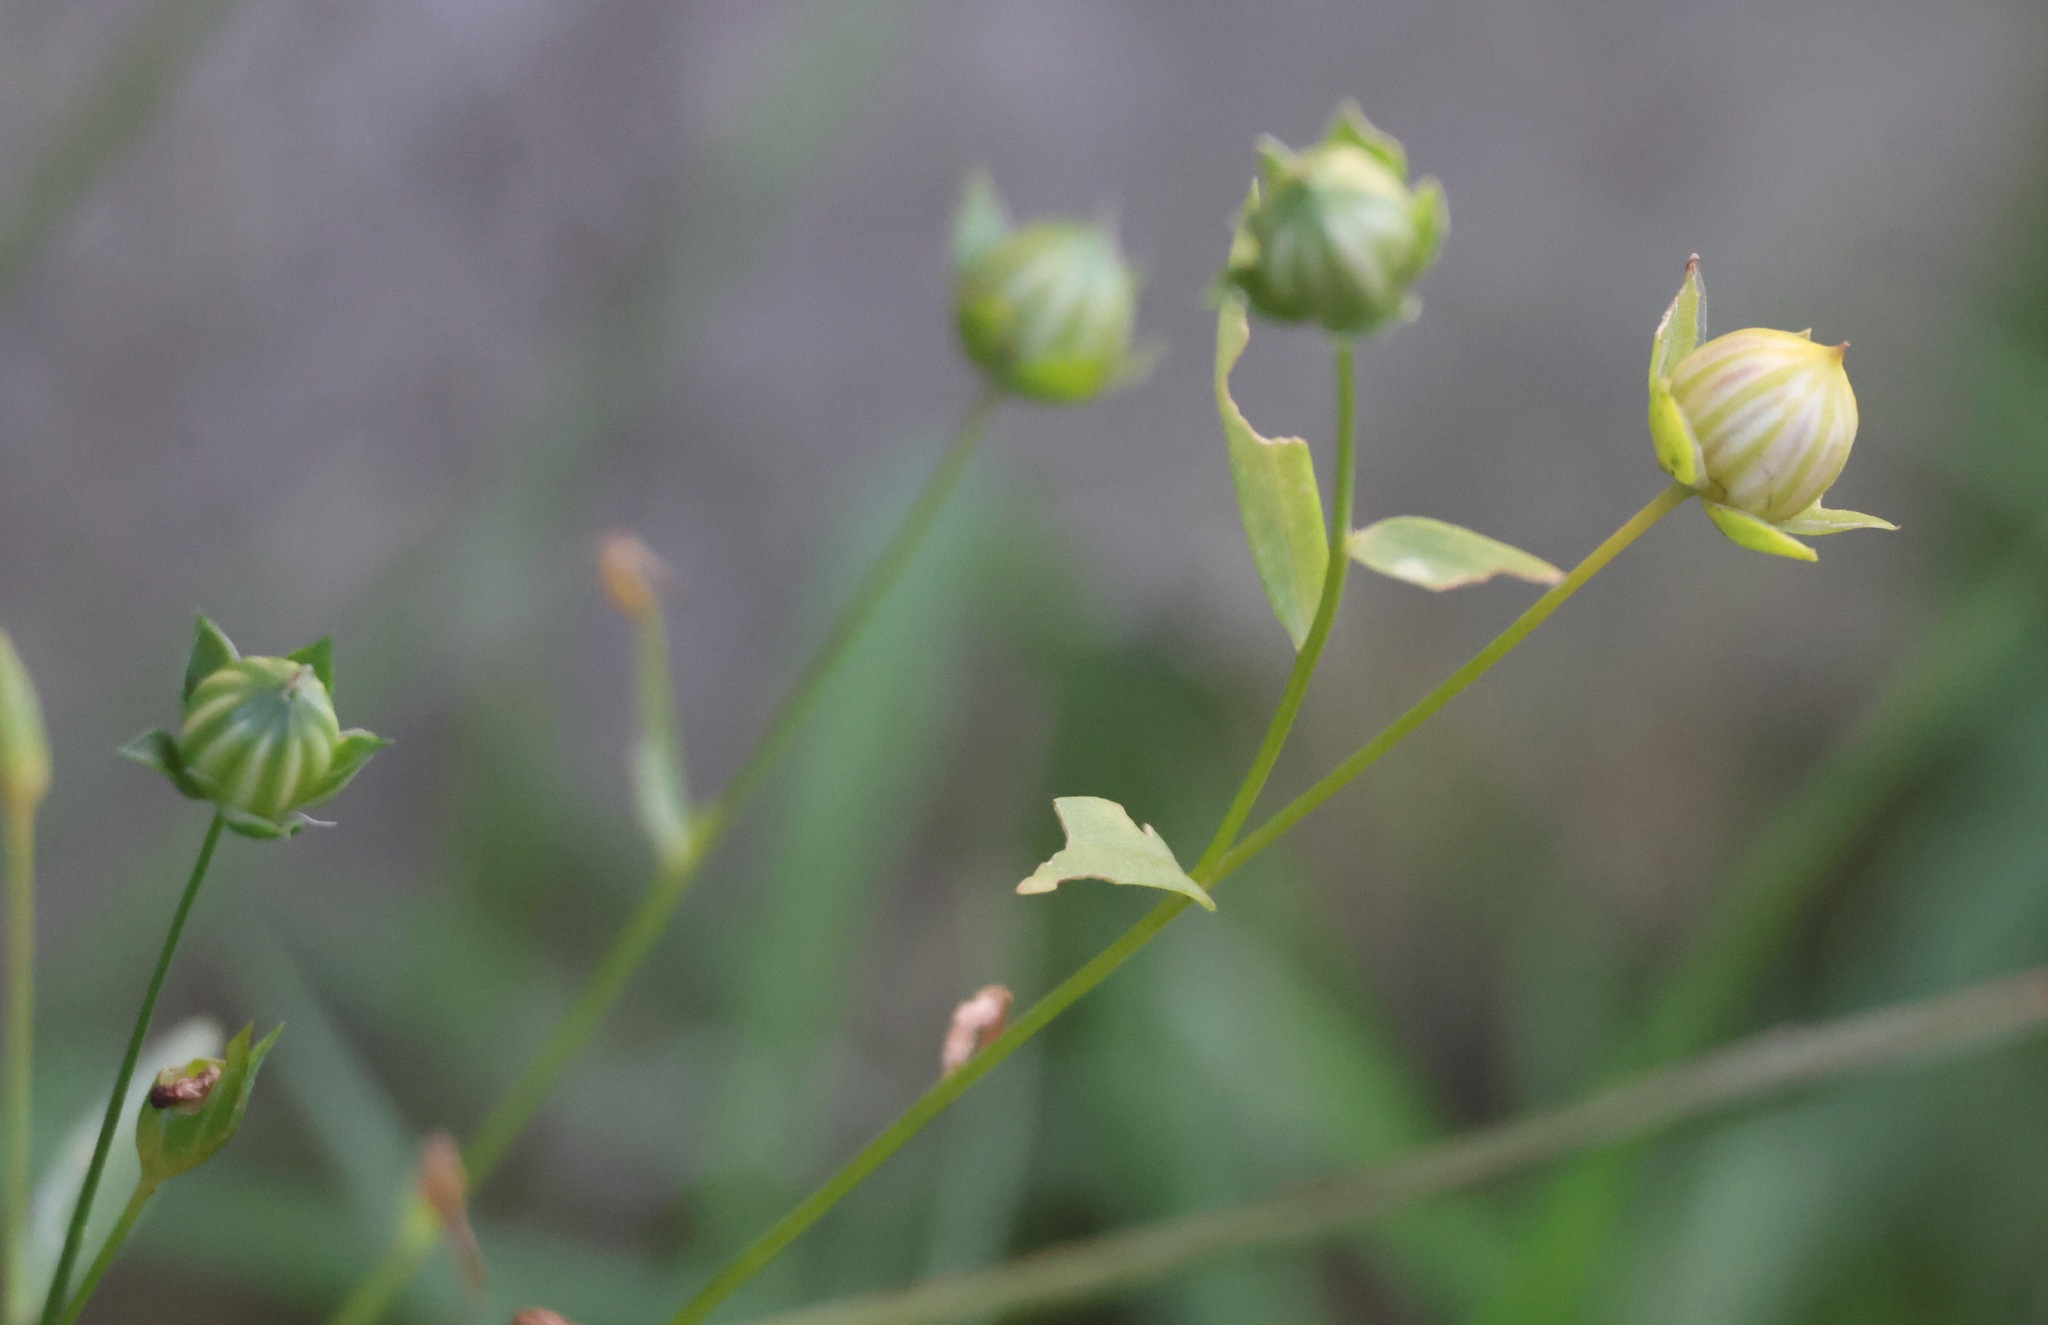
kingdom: Plantae
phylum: Tracheophyta
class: Magnoliopsida
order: Malpighiales
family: Linaceae
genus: Linum
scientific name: Linum usitatissimum
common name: Flax
